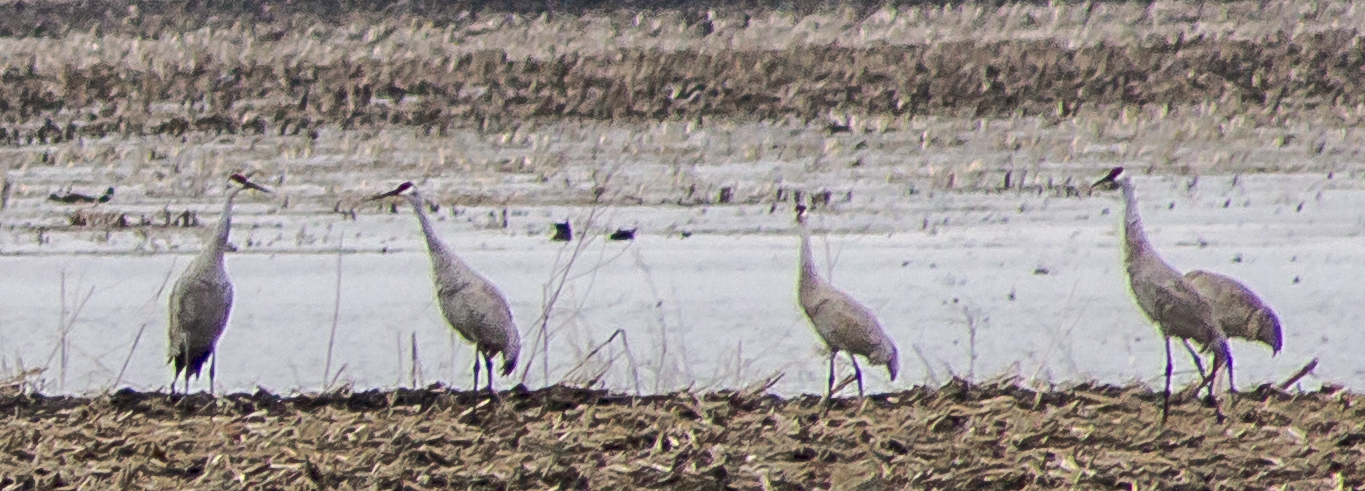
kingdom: Animalia
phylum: Chordata
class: Aves
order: Gruiformes
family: Gruidae
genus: Grus
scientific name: Grus canadensis
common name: Sandhill crane
